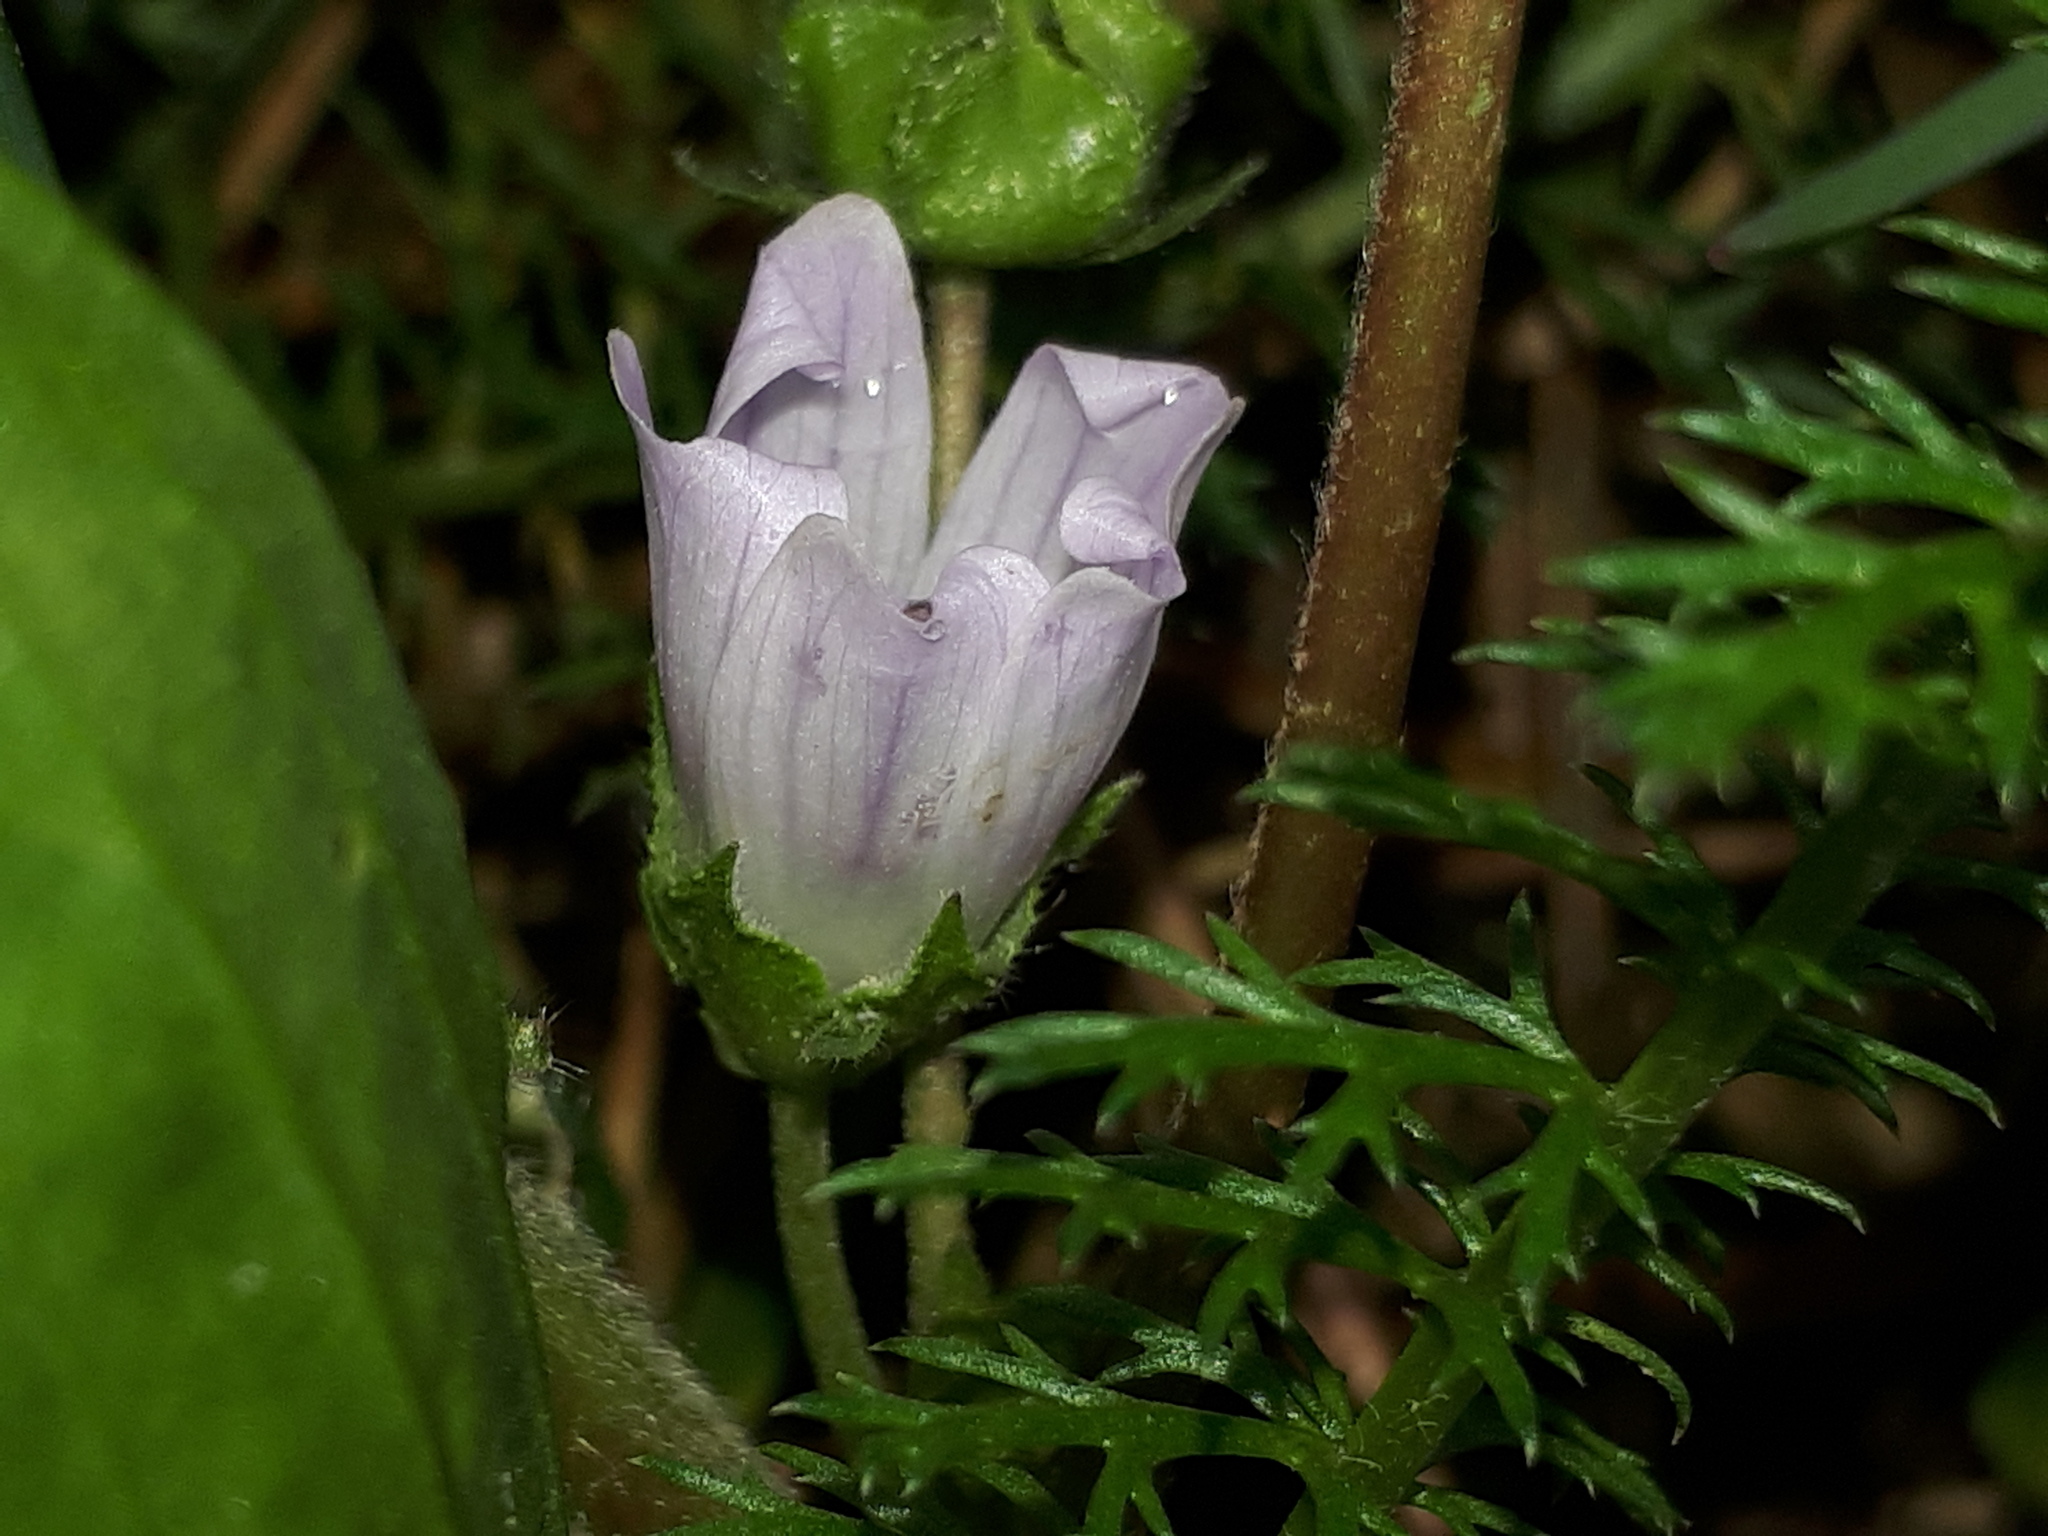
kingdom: Plantae
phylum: Tracheophyta
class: Magnoliopsida
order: Malvales
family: Malvaceae
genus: Malva
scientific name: Malva neglecta
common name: Common mallow
